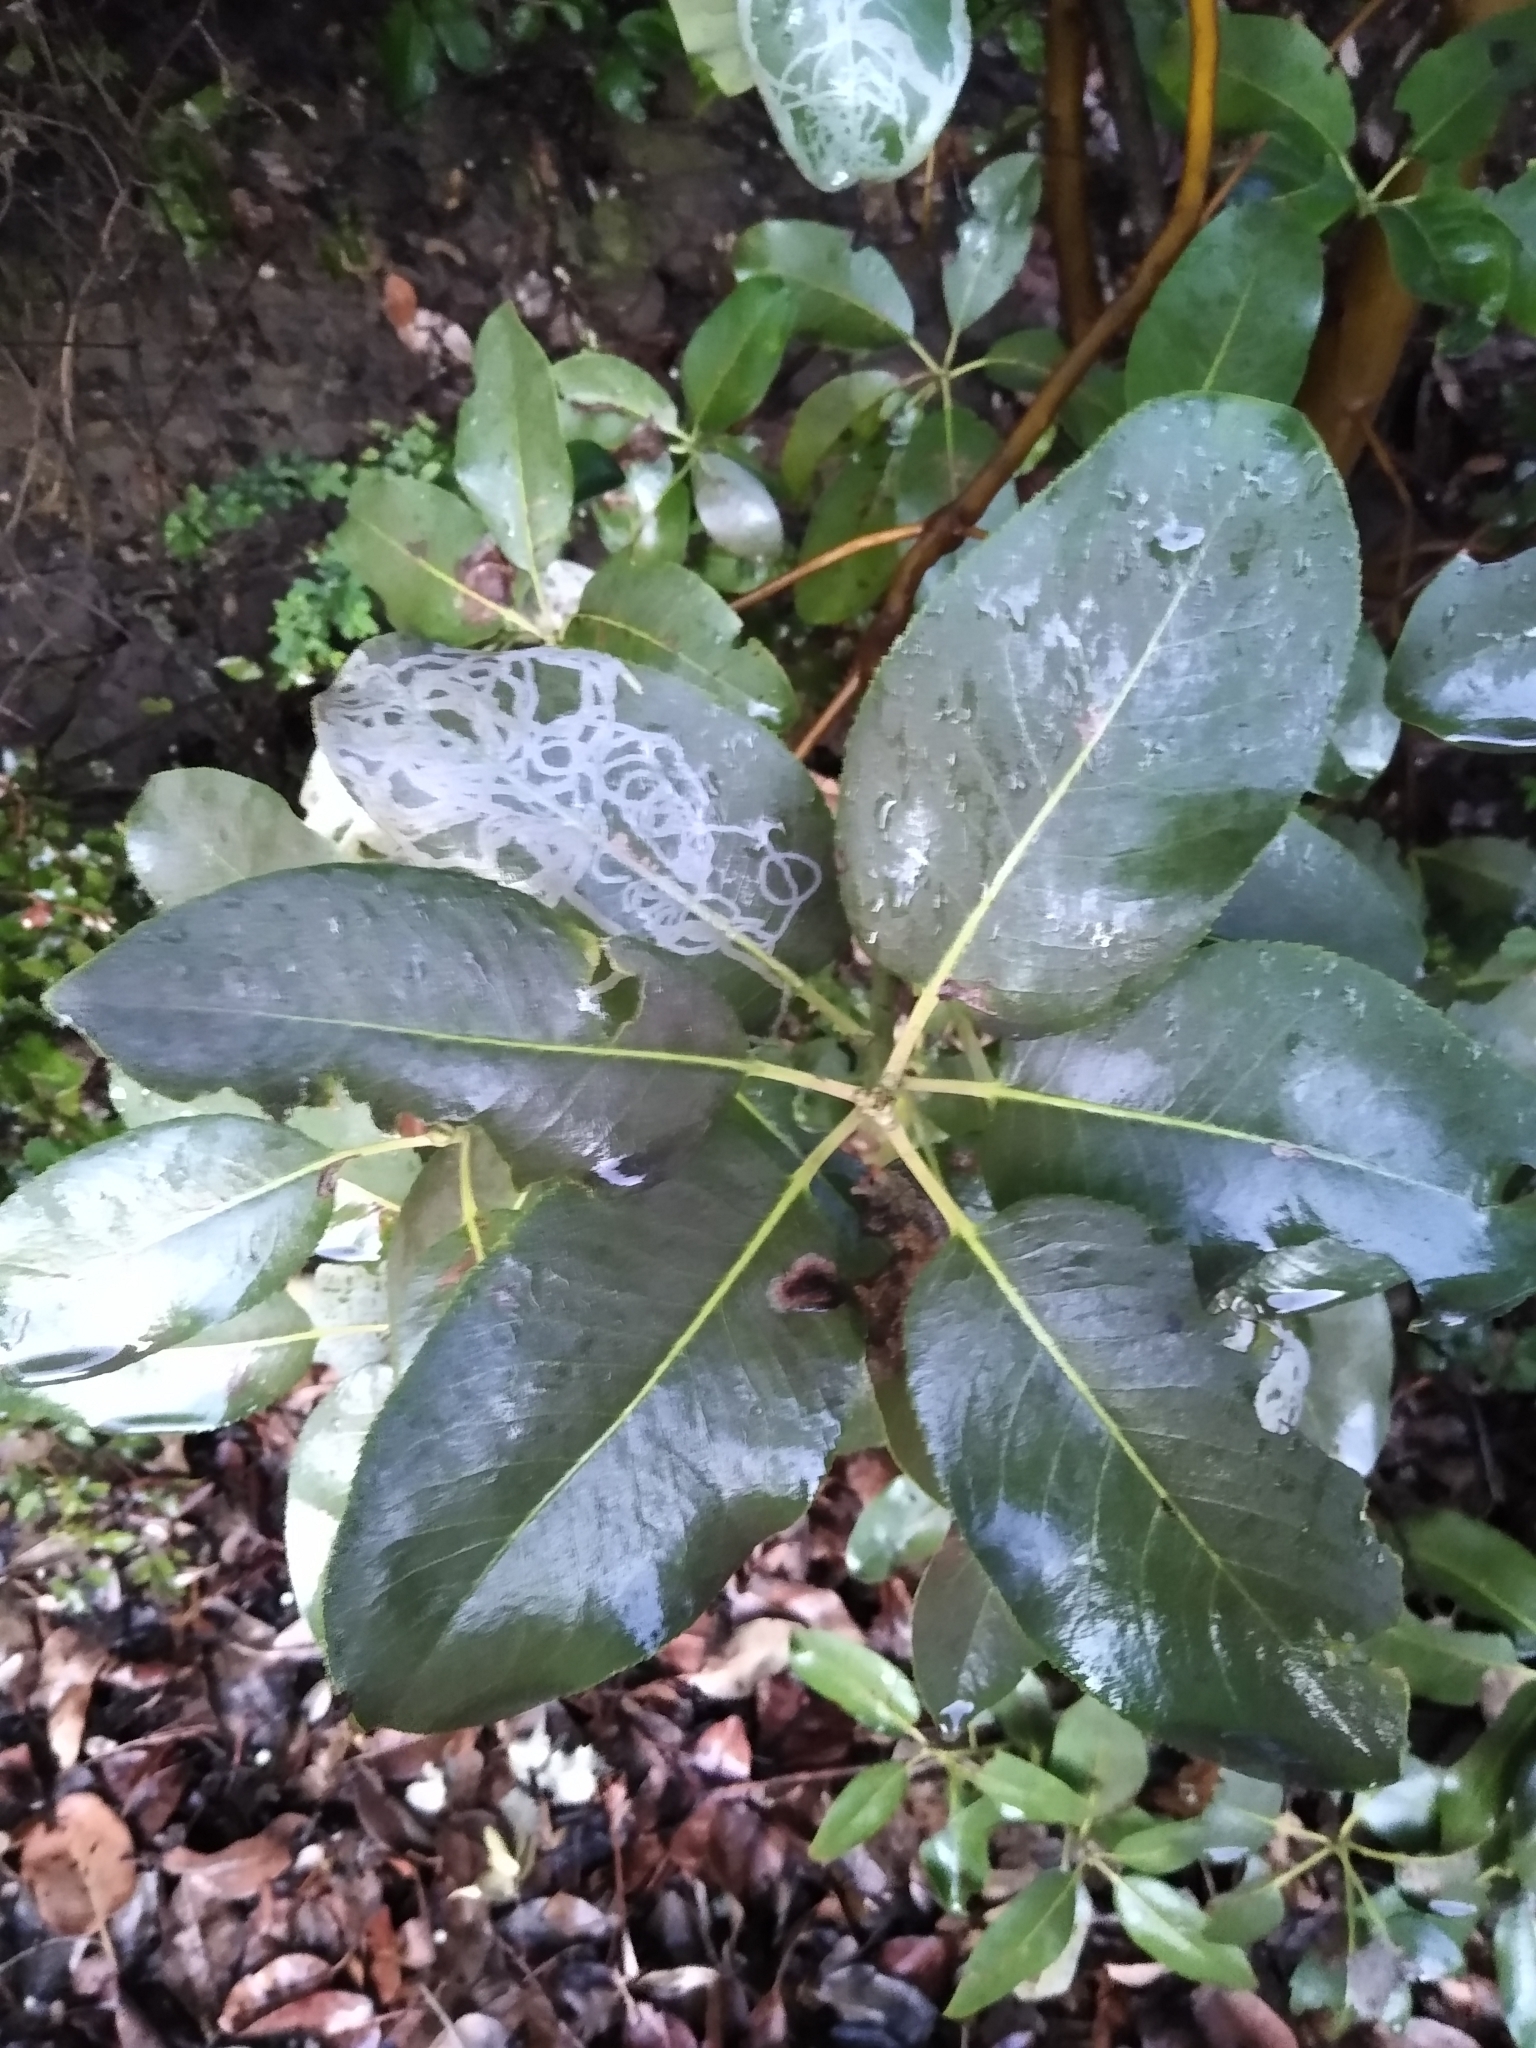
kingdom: Plantae
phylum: Tracheophyta
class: Magnoliopsida
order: Ericales
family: Ericaceae
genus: Arbutus
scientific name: Arbutus menziesii
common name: Pacific madrone
